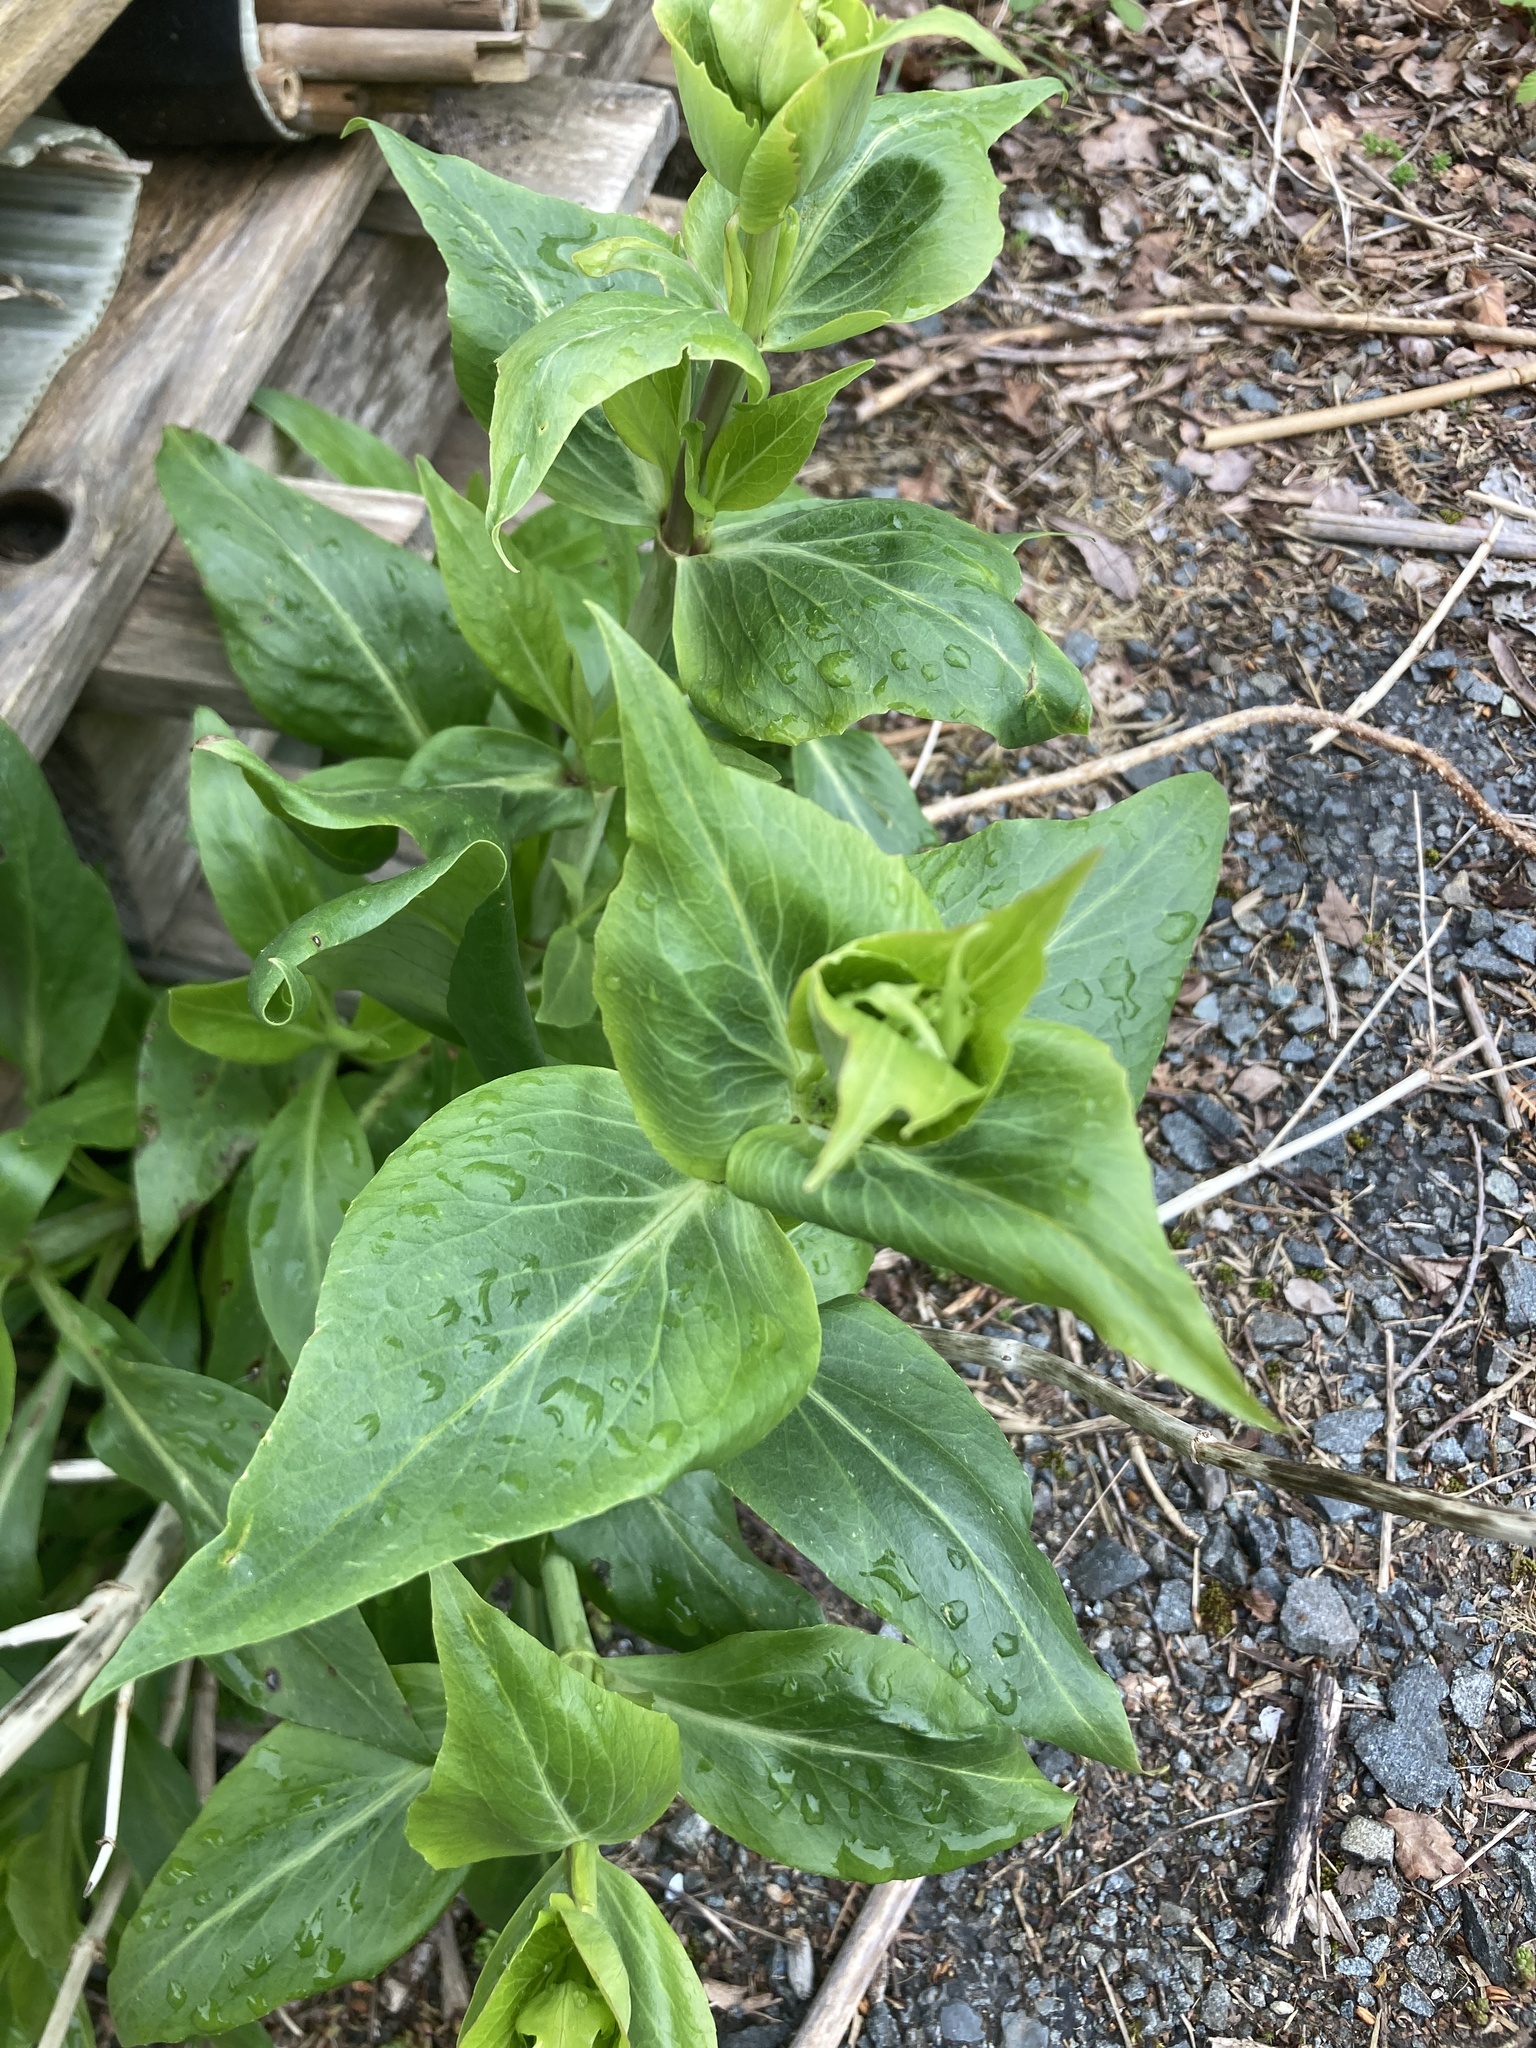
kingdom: Plantae
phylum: Tracheophyta
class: Magnoliopsida
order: Dipsacales
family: Caprifoliaceae
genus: Centranthus
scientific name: Centranthus ruber
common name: Red valerian
